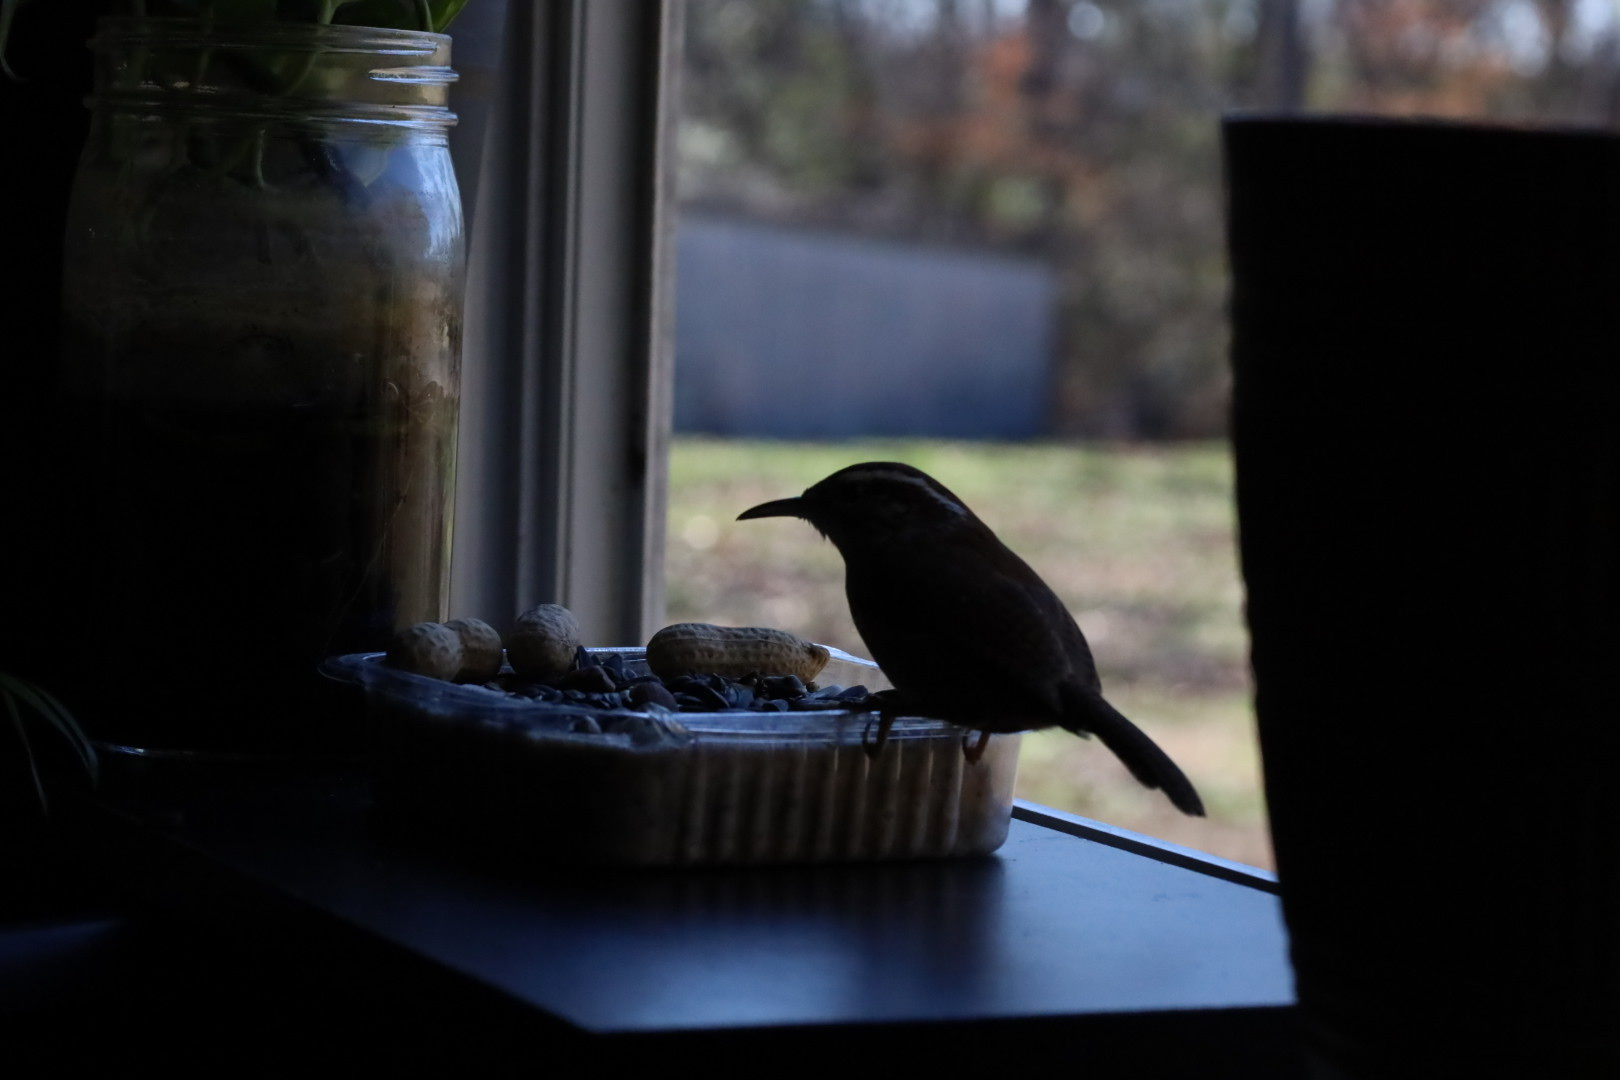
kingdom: Animalia
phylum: Chordata
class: Aves
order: Passeriformes
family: Troglodytidae
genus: Thryothorus
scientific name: Thryothorus ludovicianus
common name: Carolina wren
